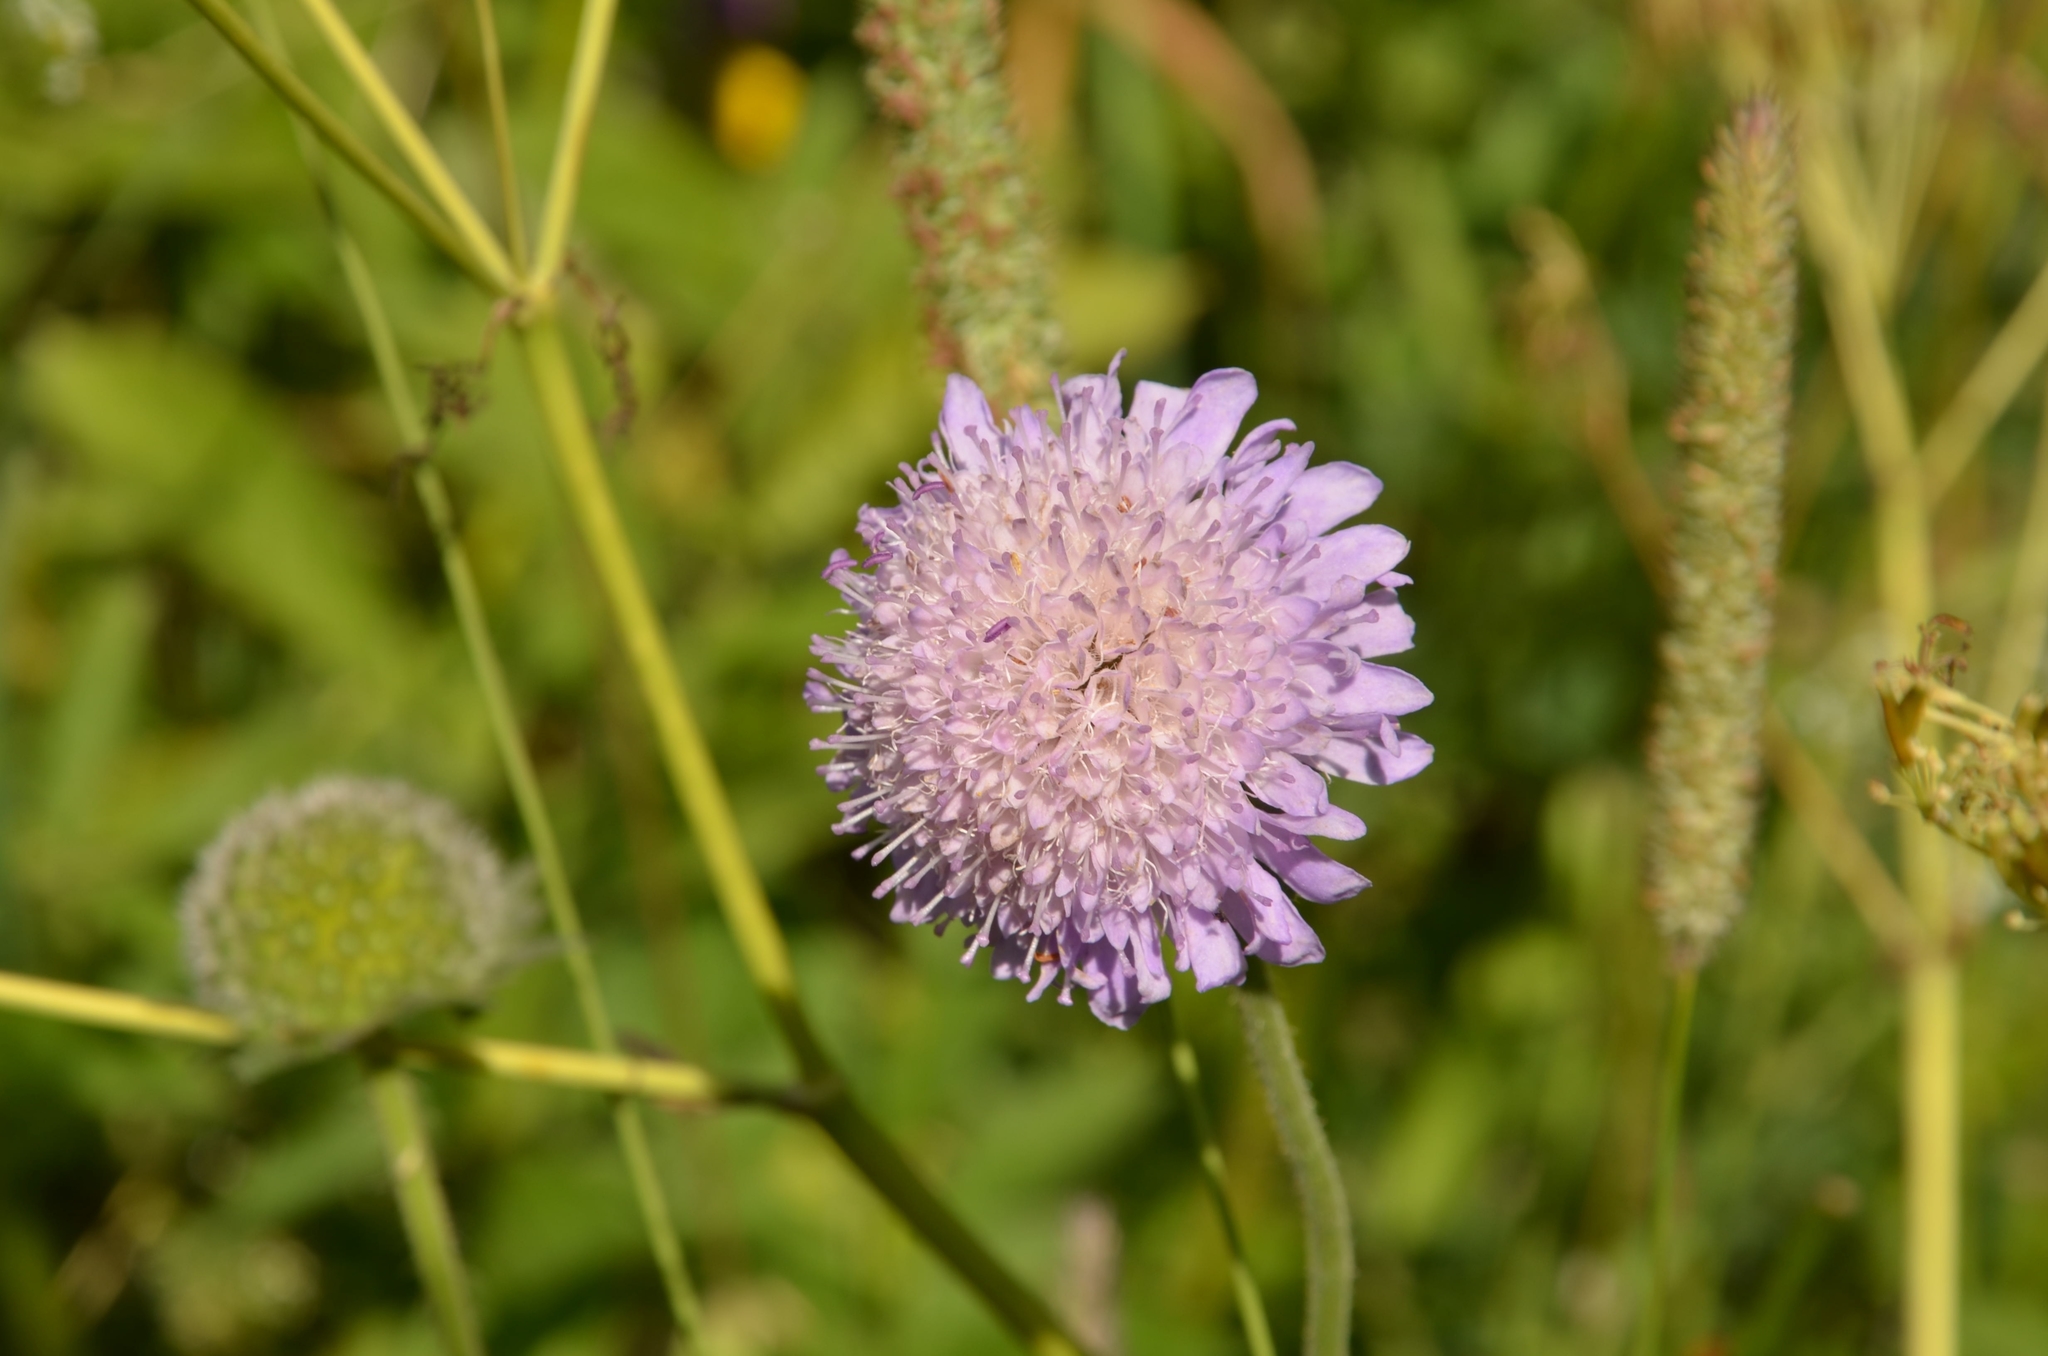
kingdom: Plantae
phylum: Tracheophyta
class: Magnoliopsida
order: Dipsacales
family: Caprifoliaceae
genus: Knautia
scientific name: Knautia arvensis
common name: Field scabiosa
